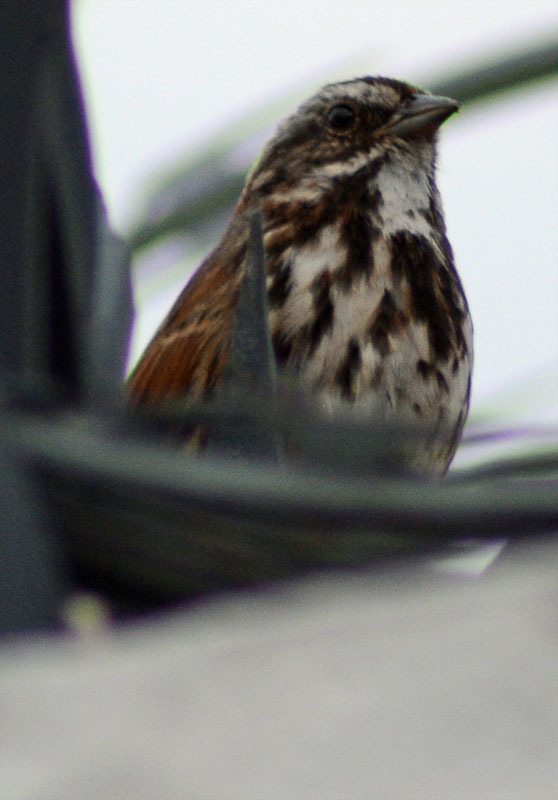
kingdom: Animalia
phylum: Chordata
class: Aves
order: Passeriformes
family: Passerellidae
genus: Melospiza
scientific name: Melospiza melodia
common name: Song sparrow
